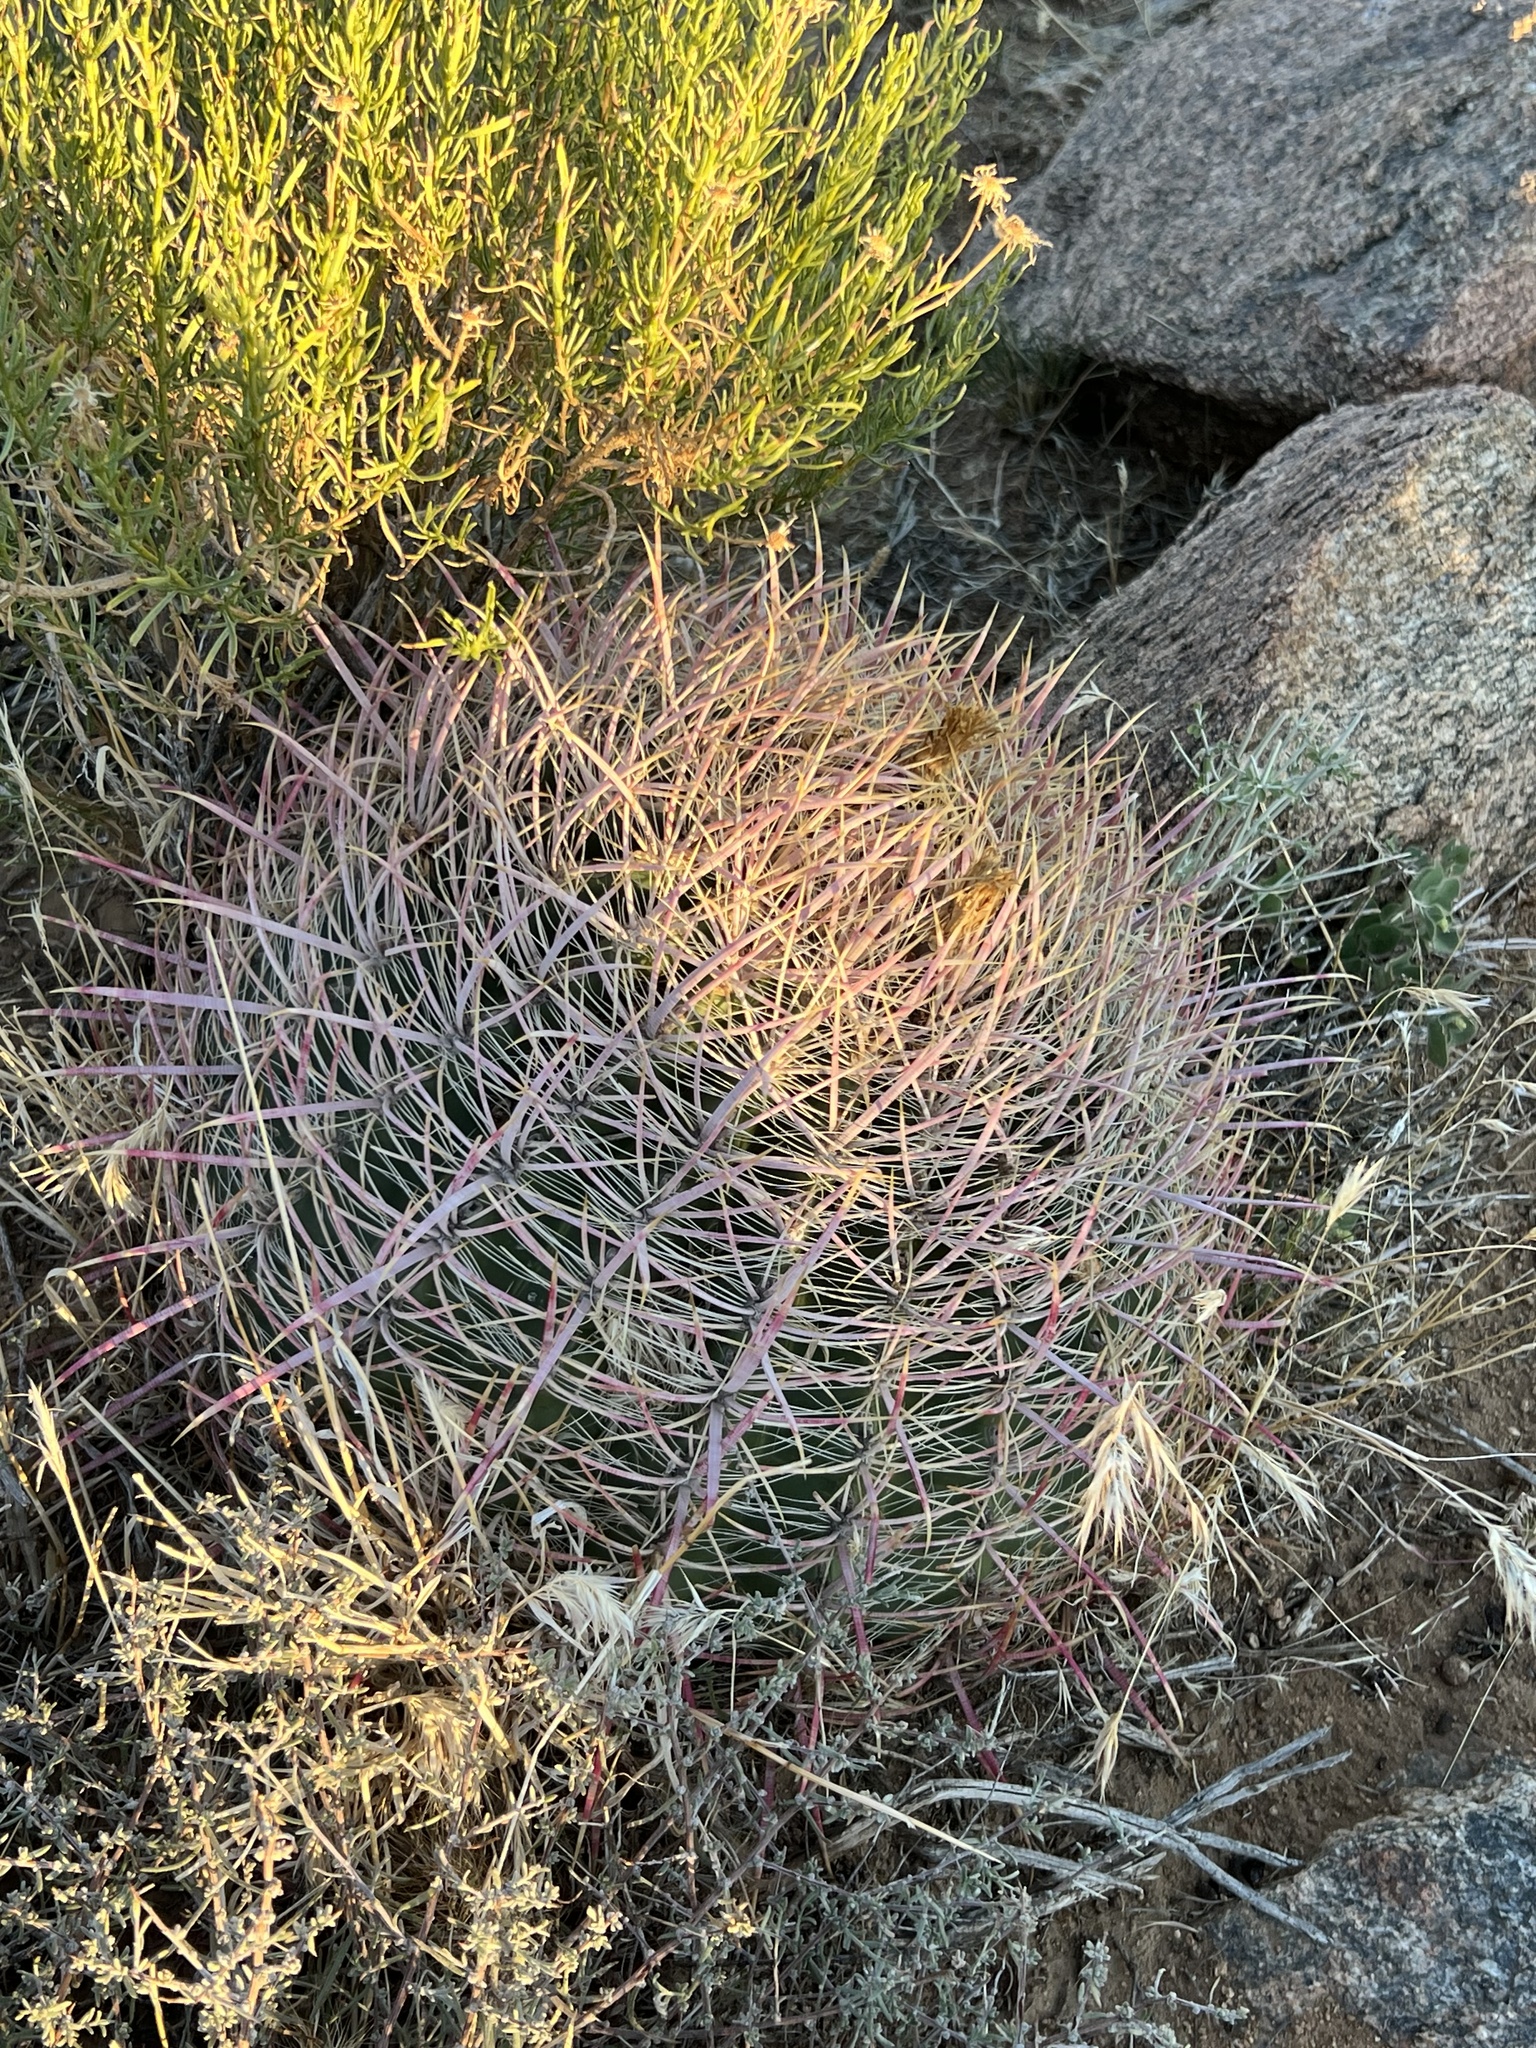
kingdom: Plantae
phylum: Tracheophyta
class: Magnoliopsida
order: Caryophyllales
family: Cactaceae
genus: Ferocactus
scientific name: Ferocactus cylindraceus
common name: California barrel cactus
